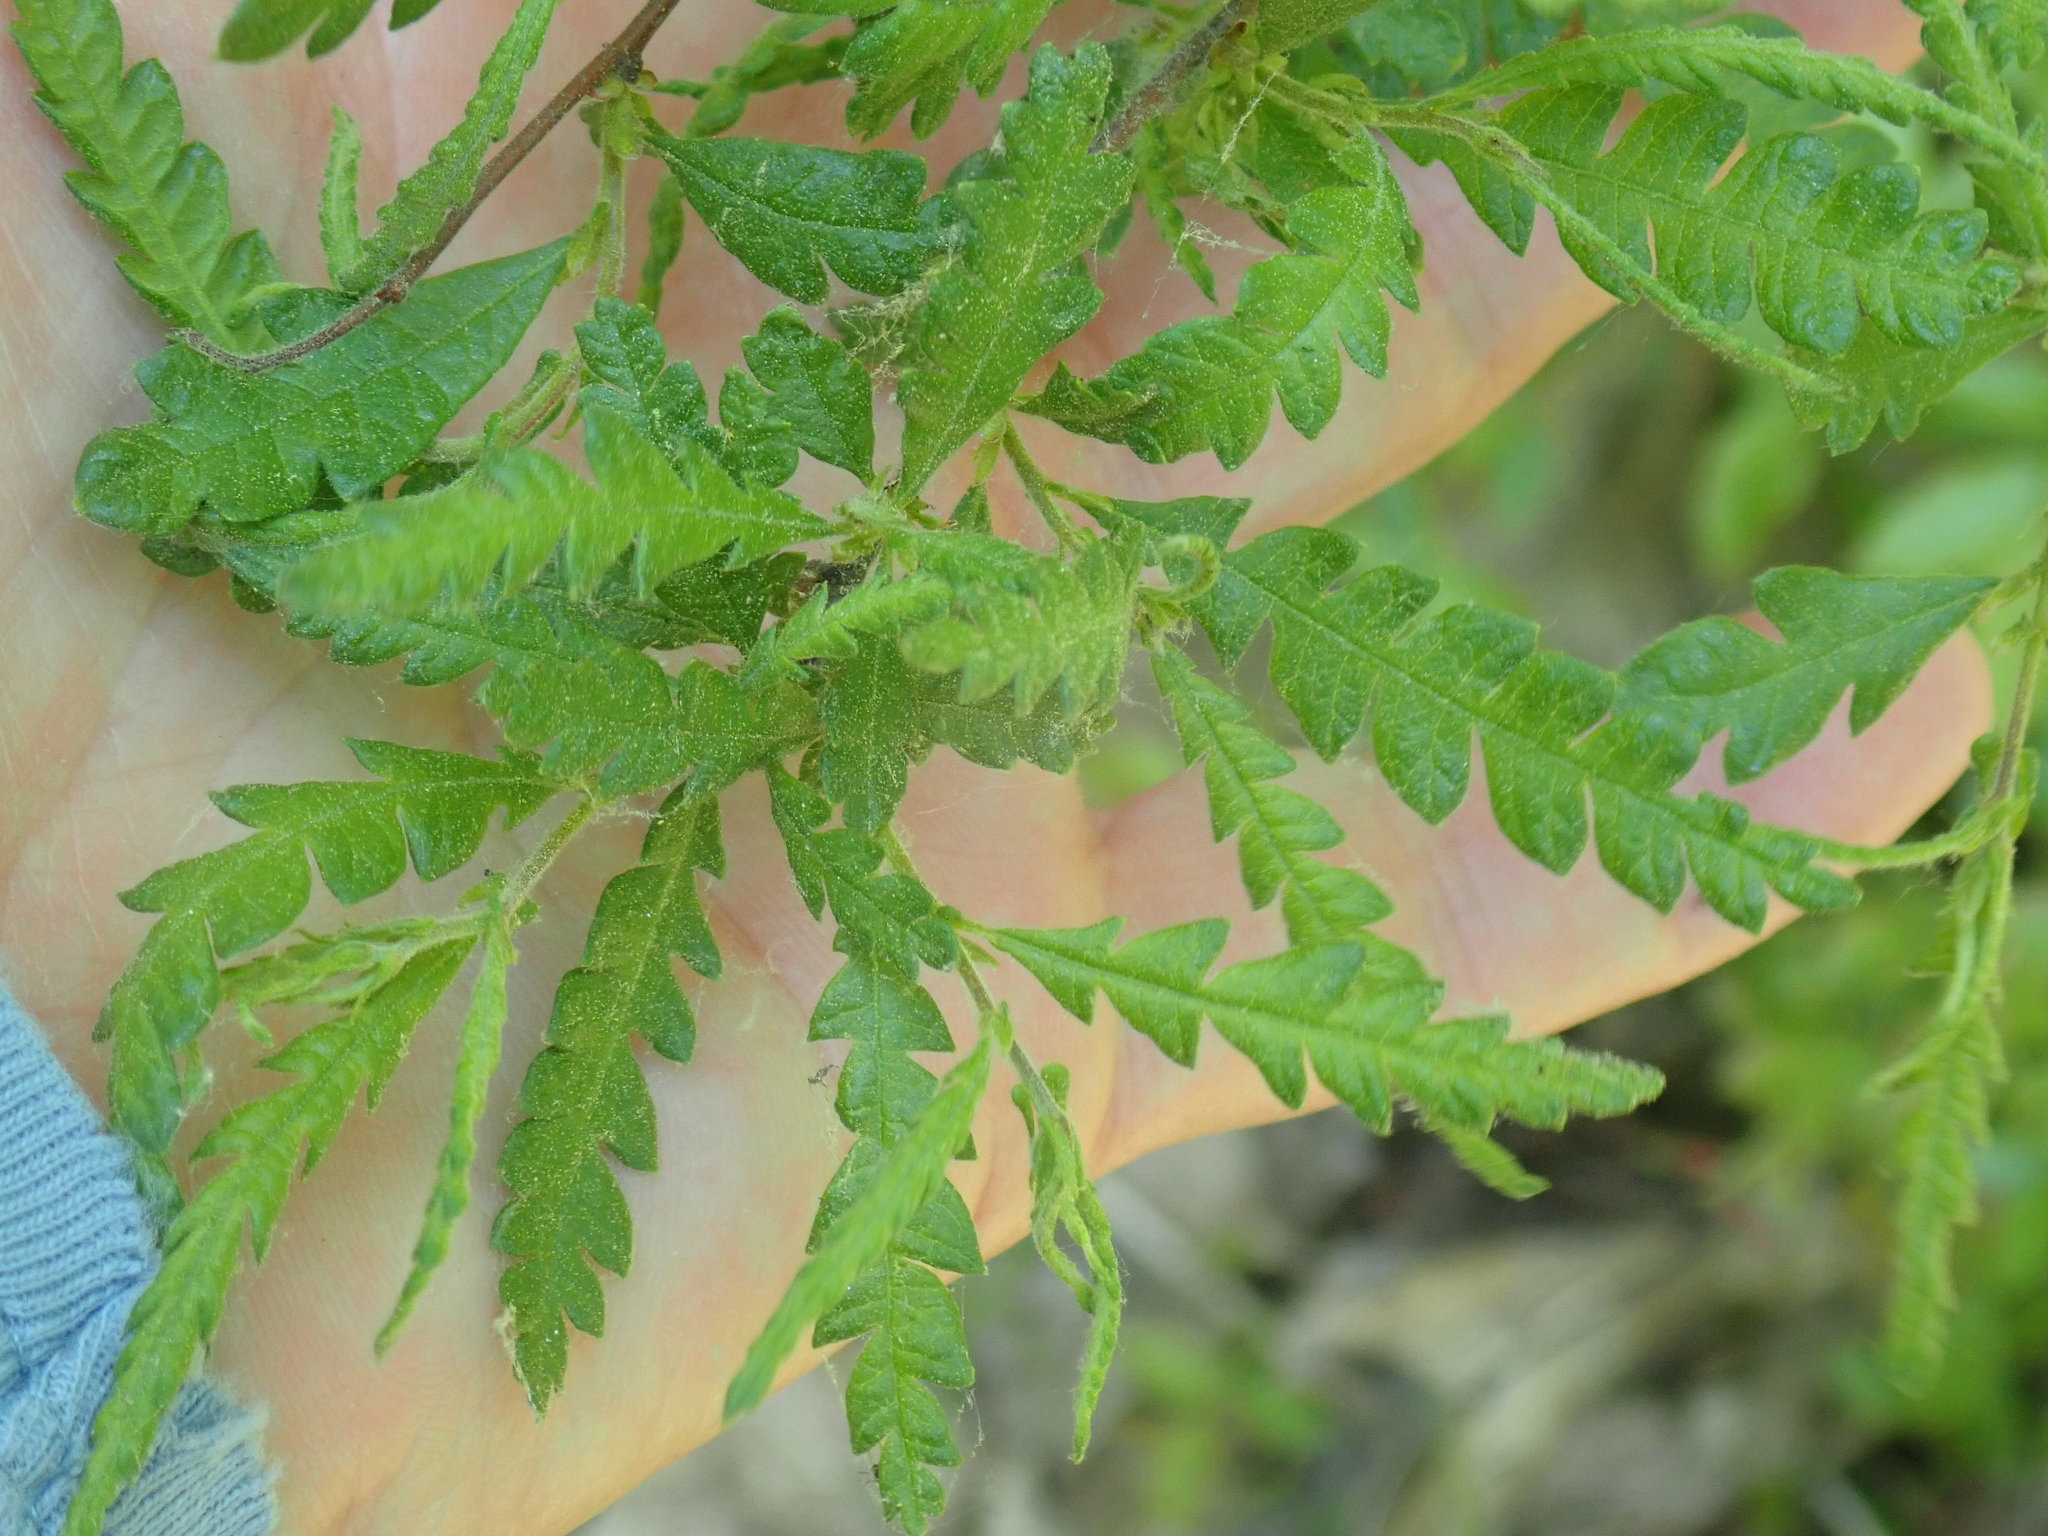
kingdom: Plantae
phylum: Tracheophyta
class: Magnoliopsida
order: Fagales
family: Myricaceae
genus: Comptonia
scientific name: Comptonia peregrina
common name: Sweet-fern
